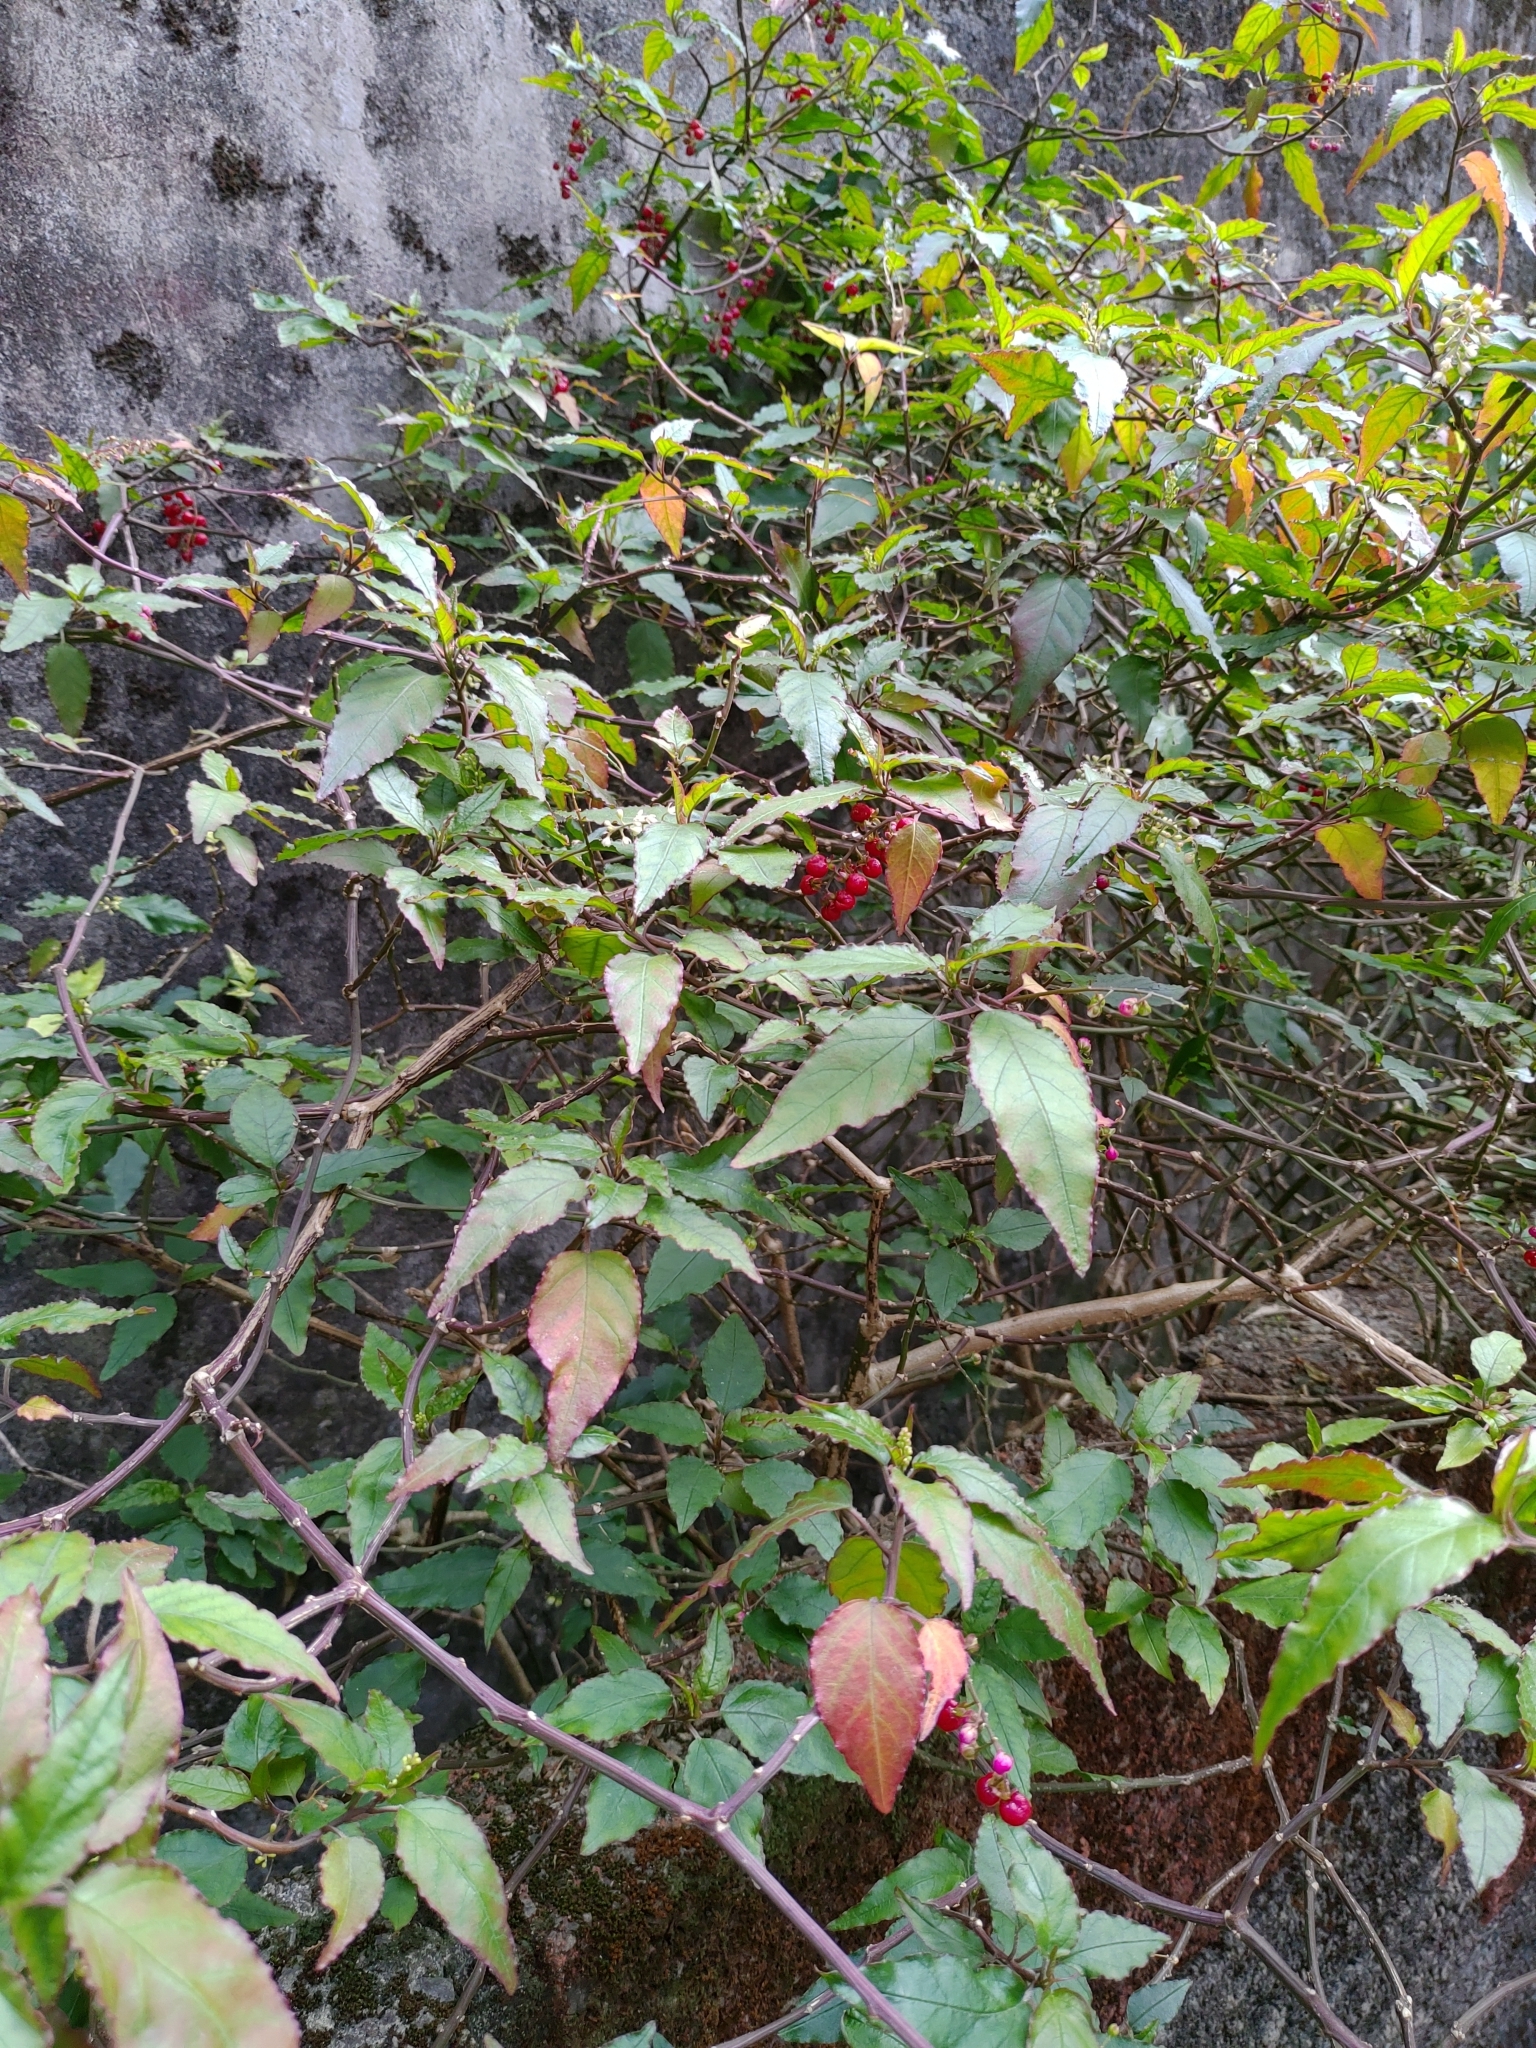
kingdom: Plantae
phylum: Tracheophyta
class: Magnoliopsida
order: Caryophyllales
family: Phytolaccaceae
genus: Rivina
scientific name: Rivina humilis
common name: Rougeplant
